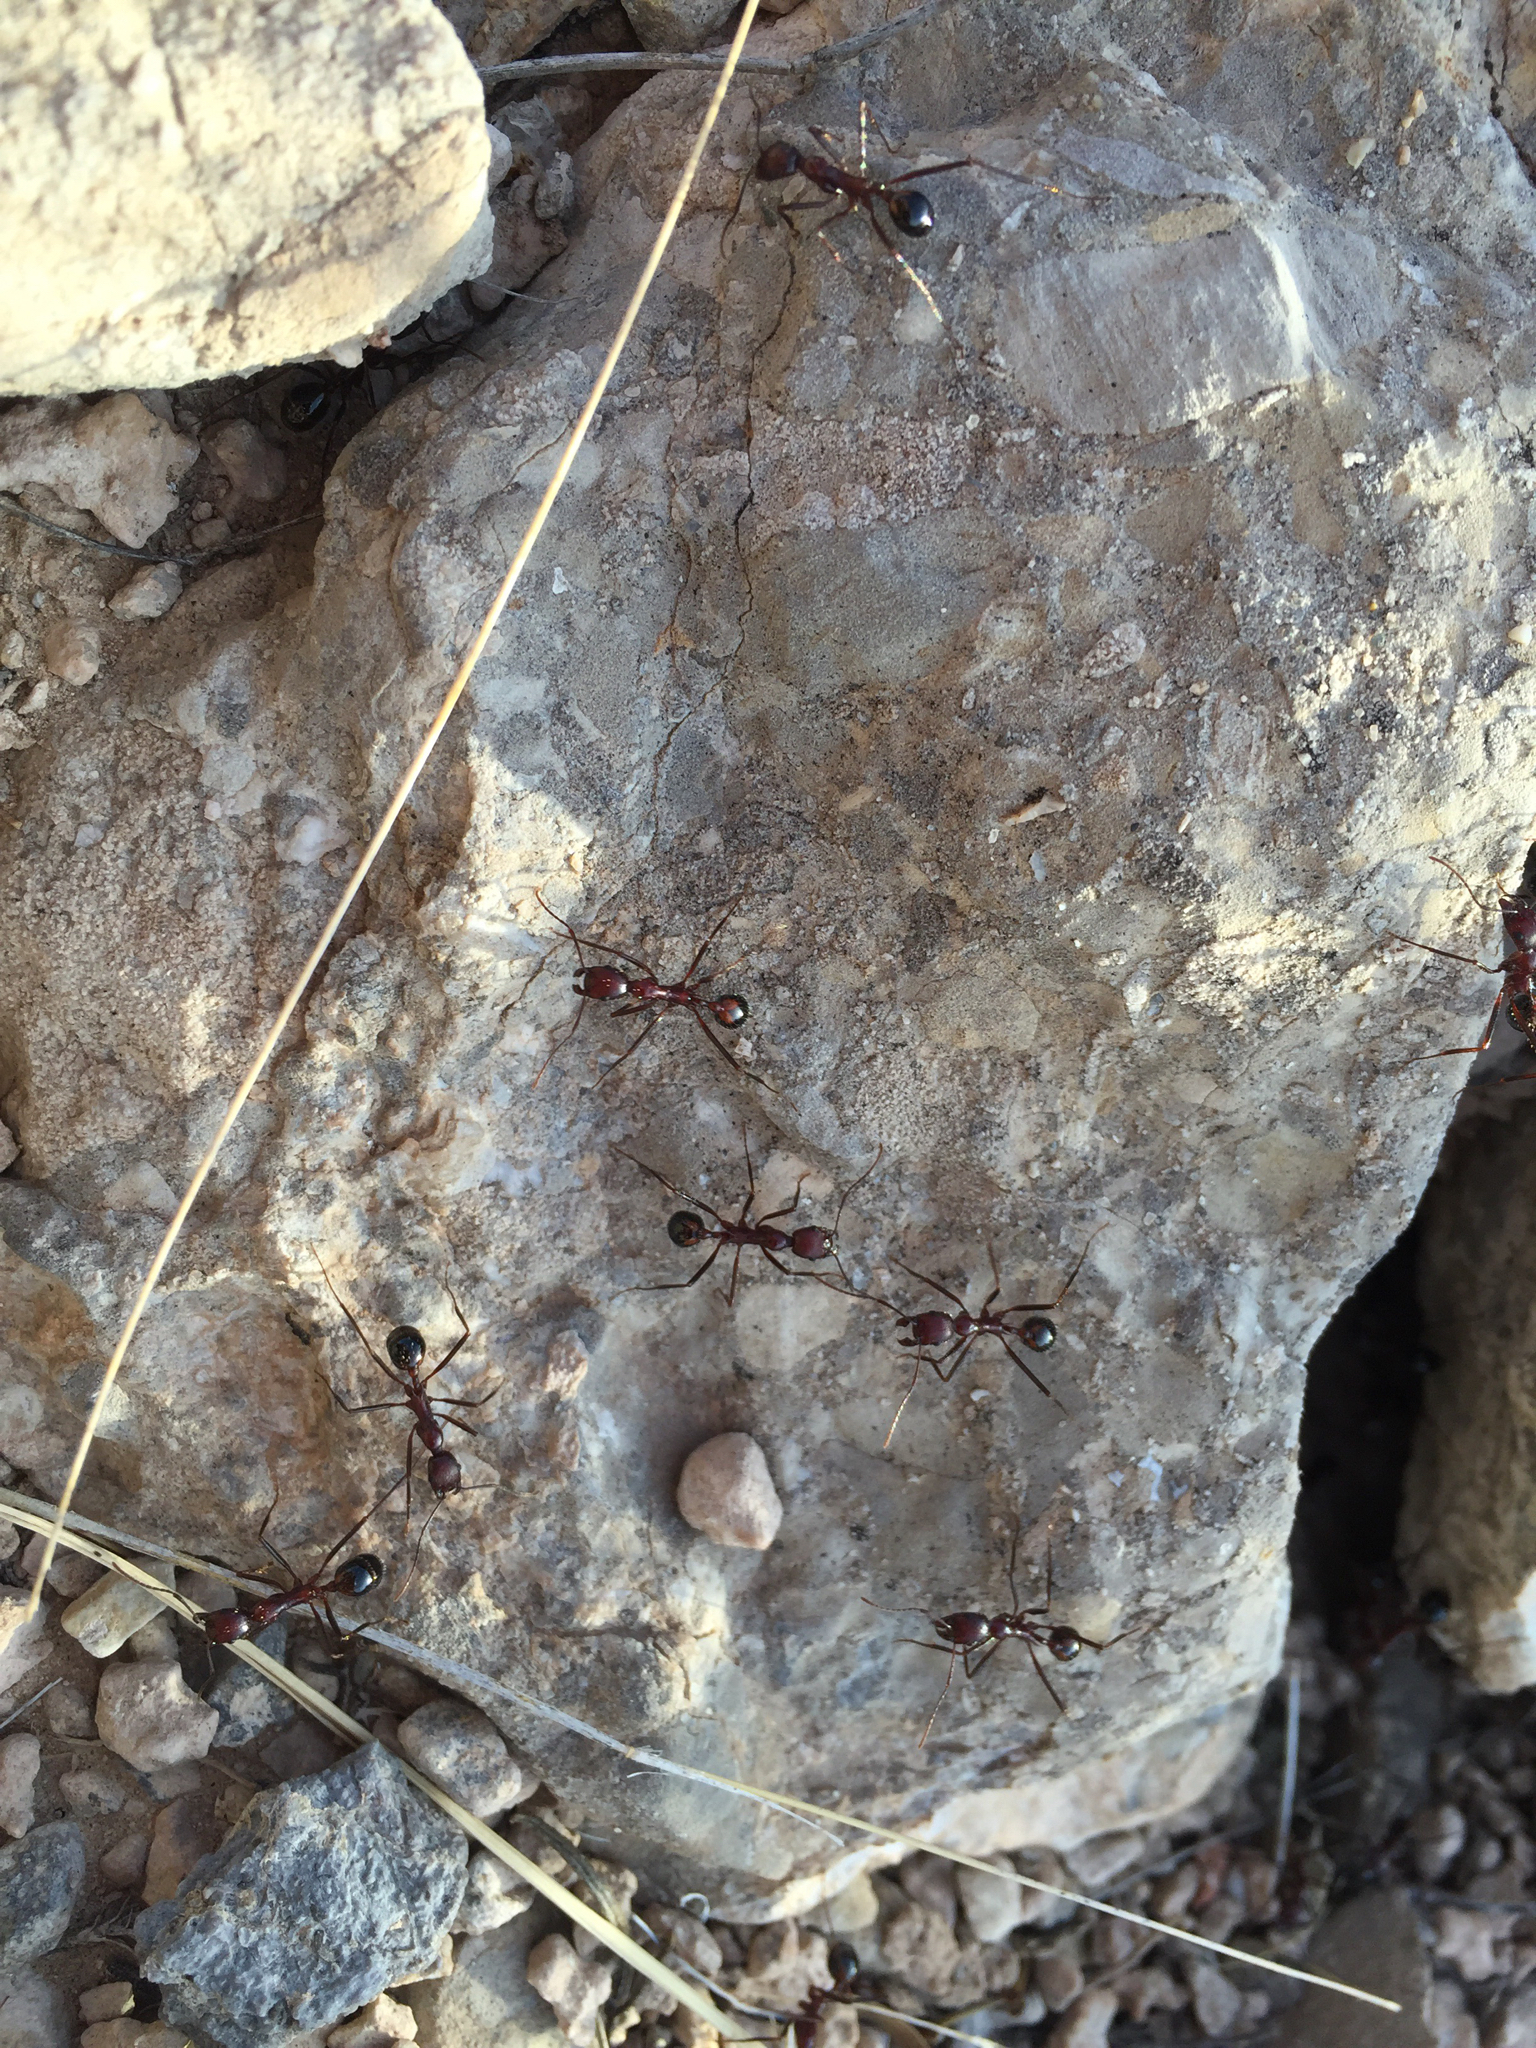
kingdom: Animalia
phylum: Arthropoda
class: Insecta
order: Hymenoptera
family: Formicidae
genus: Novomessor
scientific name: Novomessor cockerelli
